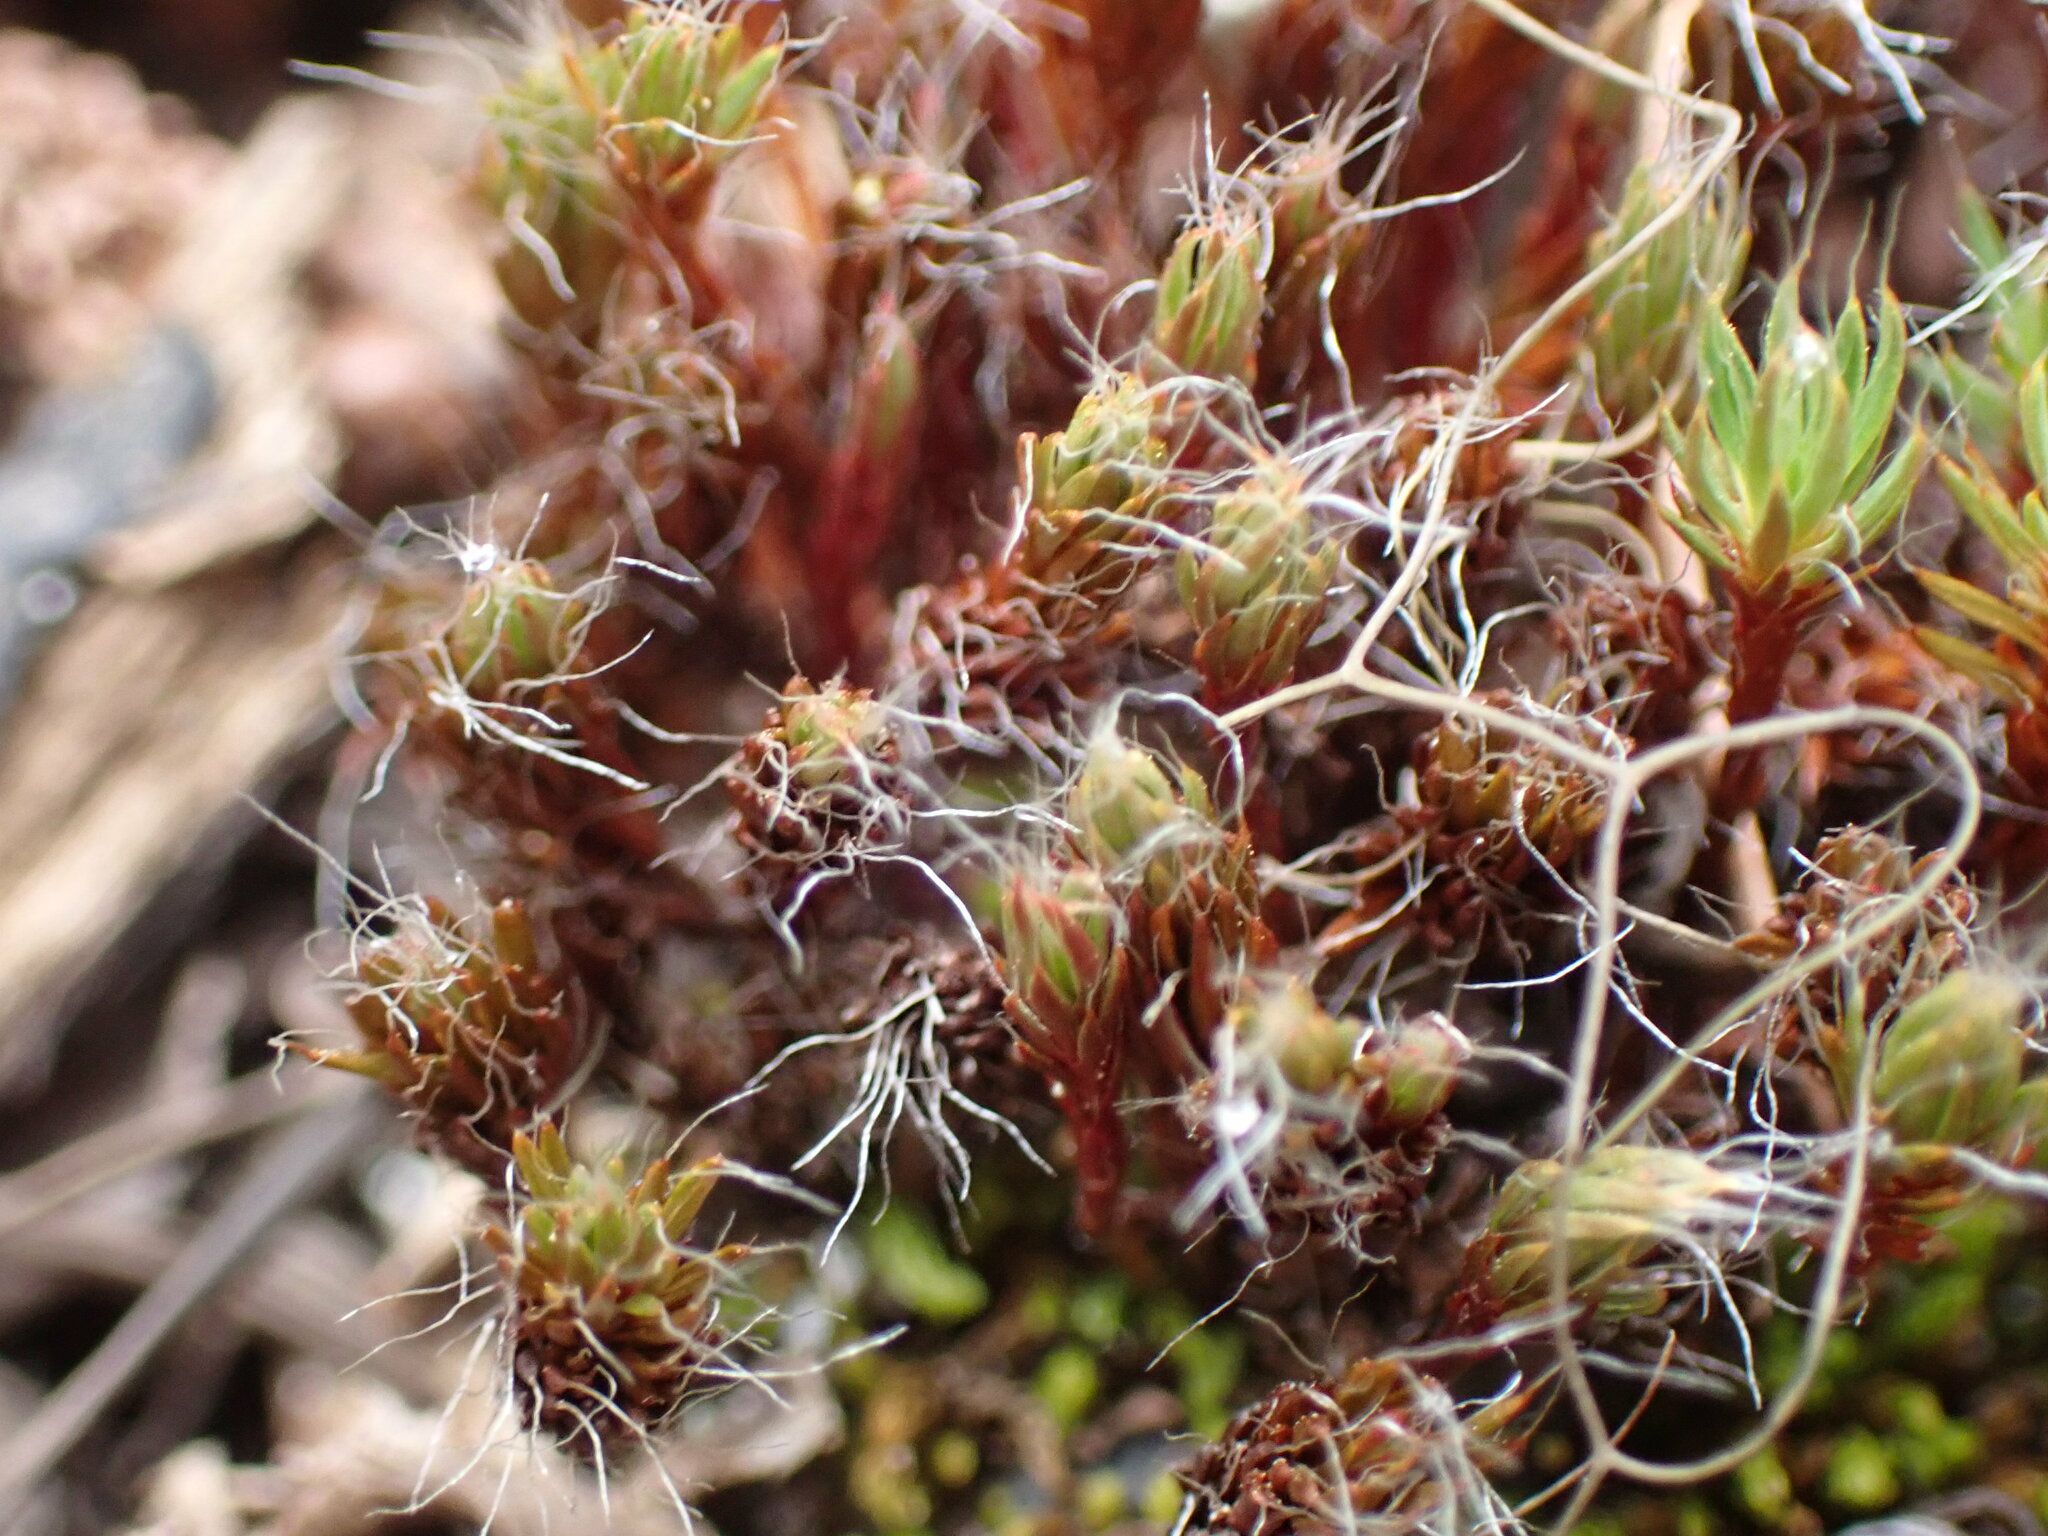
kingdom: Plantae
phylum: Bryophyta
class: Polytrichopsida
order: Polytrichales
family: Polytrichaceae
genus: Polytrichum
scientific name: Polytrichum piliferum
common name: Bristly haircap
